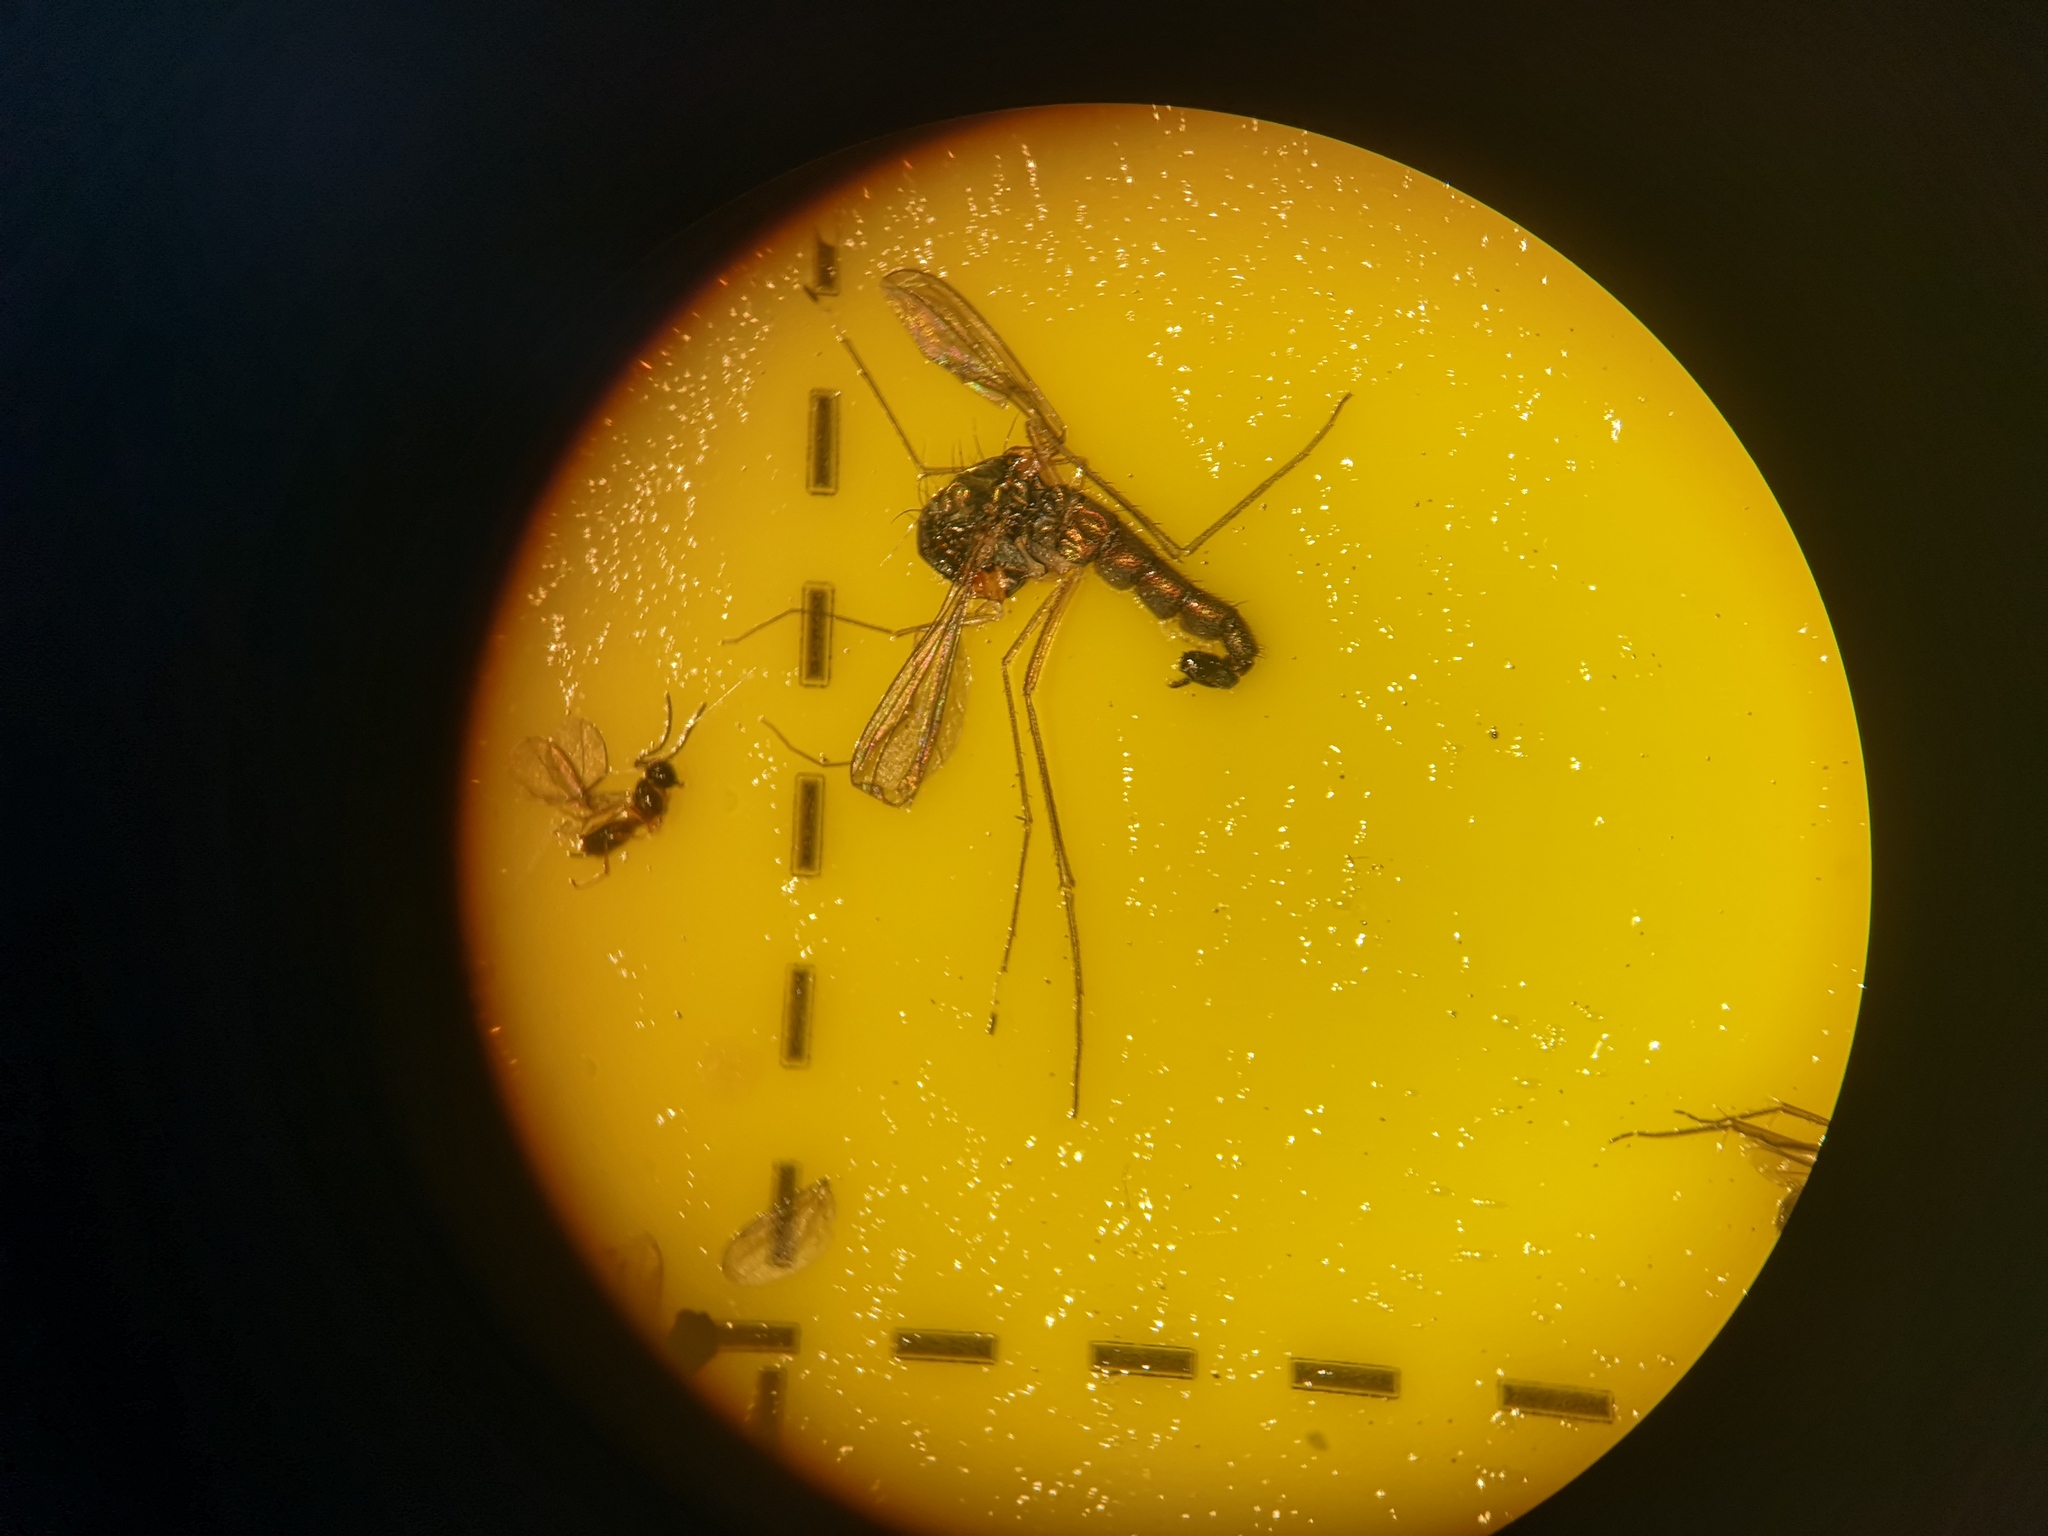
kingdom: Animalia
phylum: Arthropoda
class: Insecta
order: Diptera
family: Dolichopodidae
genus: Sciapus
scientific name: Sciapus platypterus
